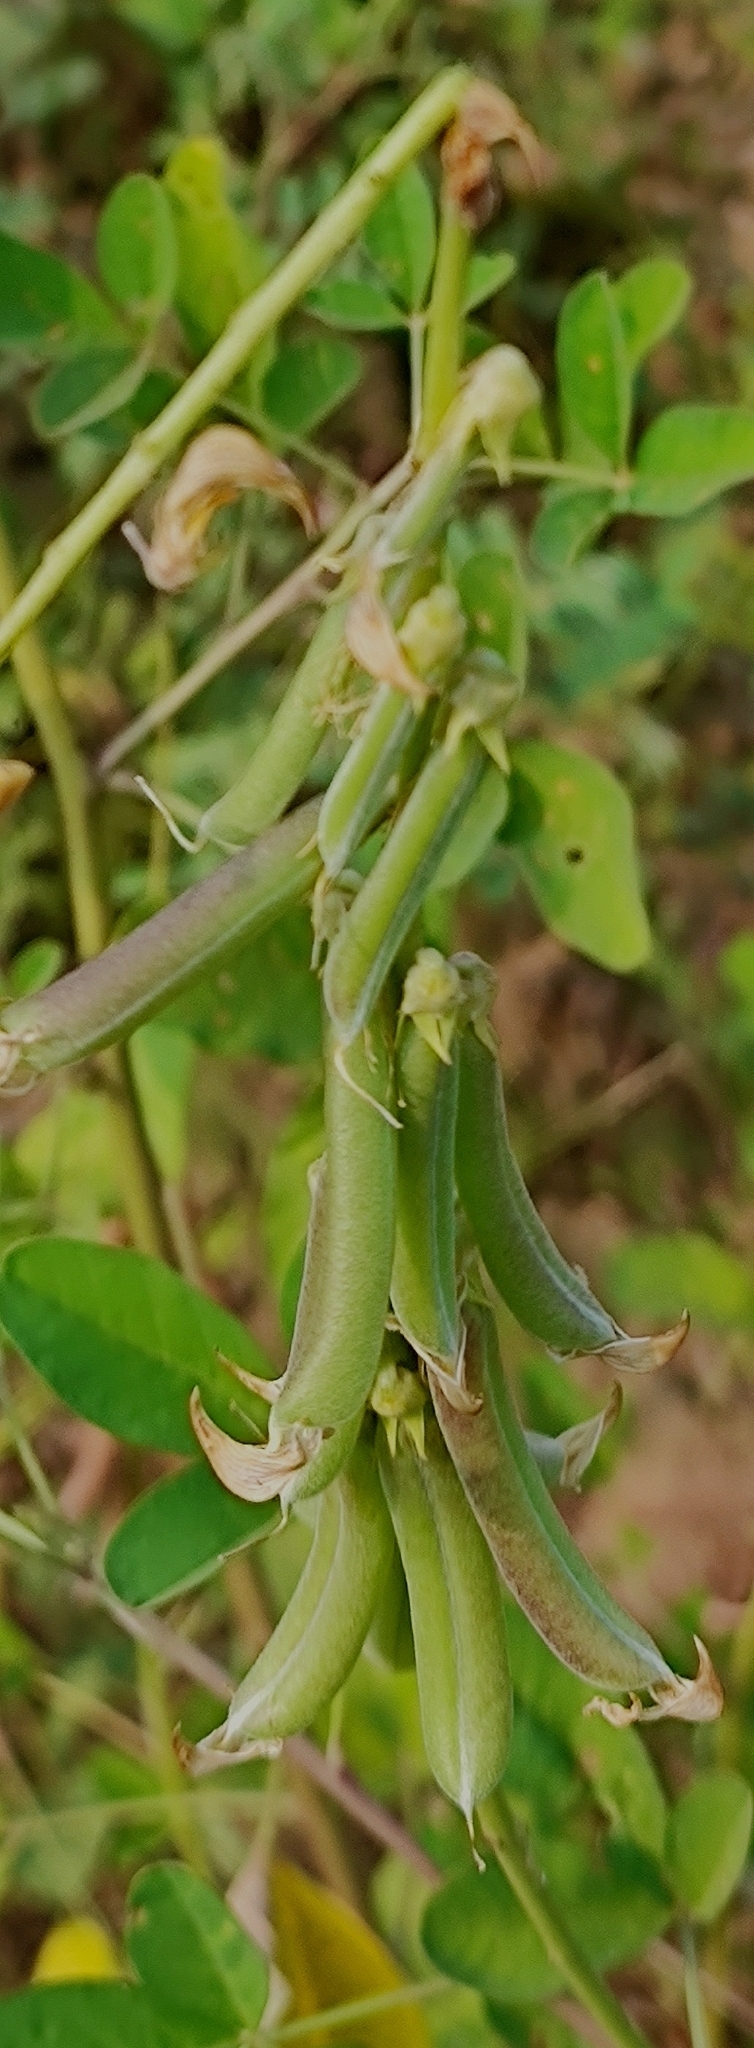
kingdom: Plantae
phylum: Tracheophyta
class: Magnoliopsida
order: Fabales
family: Fabaceae
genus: Crotalaria
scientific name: Crotalaria pallida
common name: Smooth rattlebox
